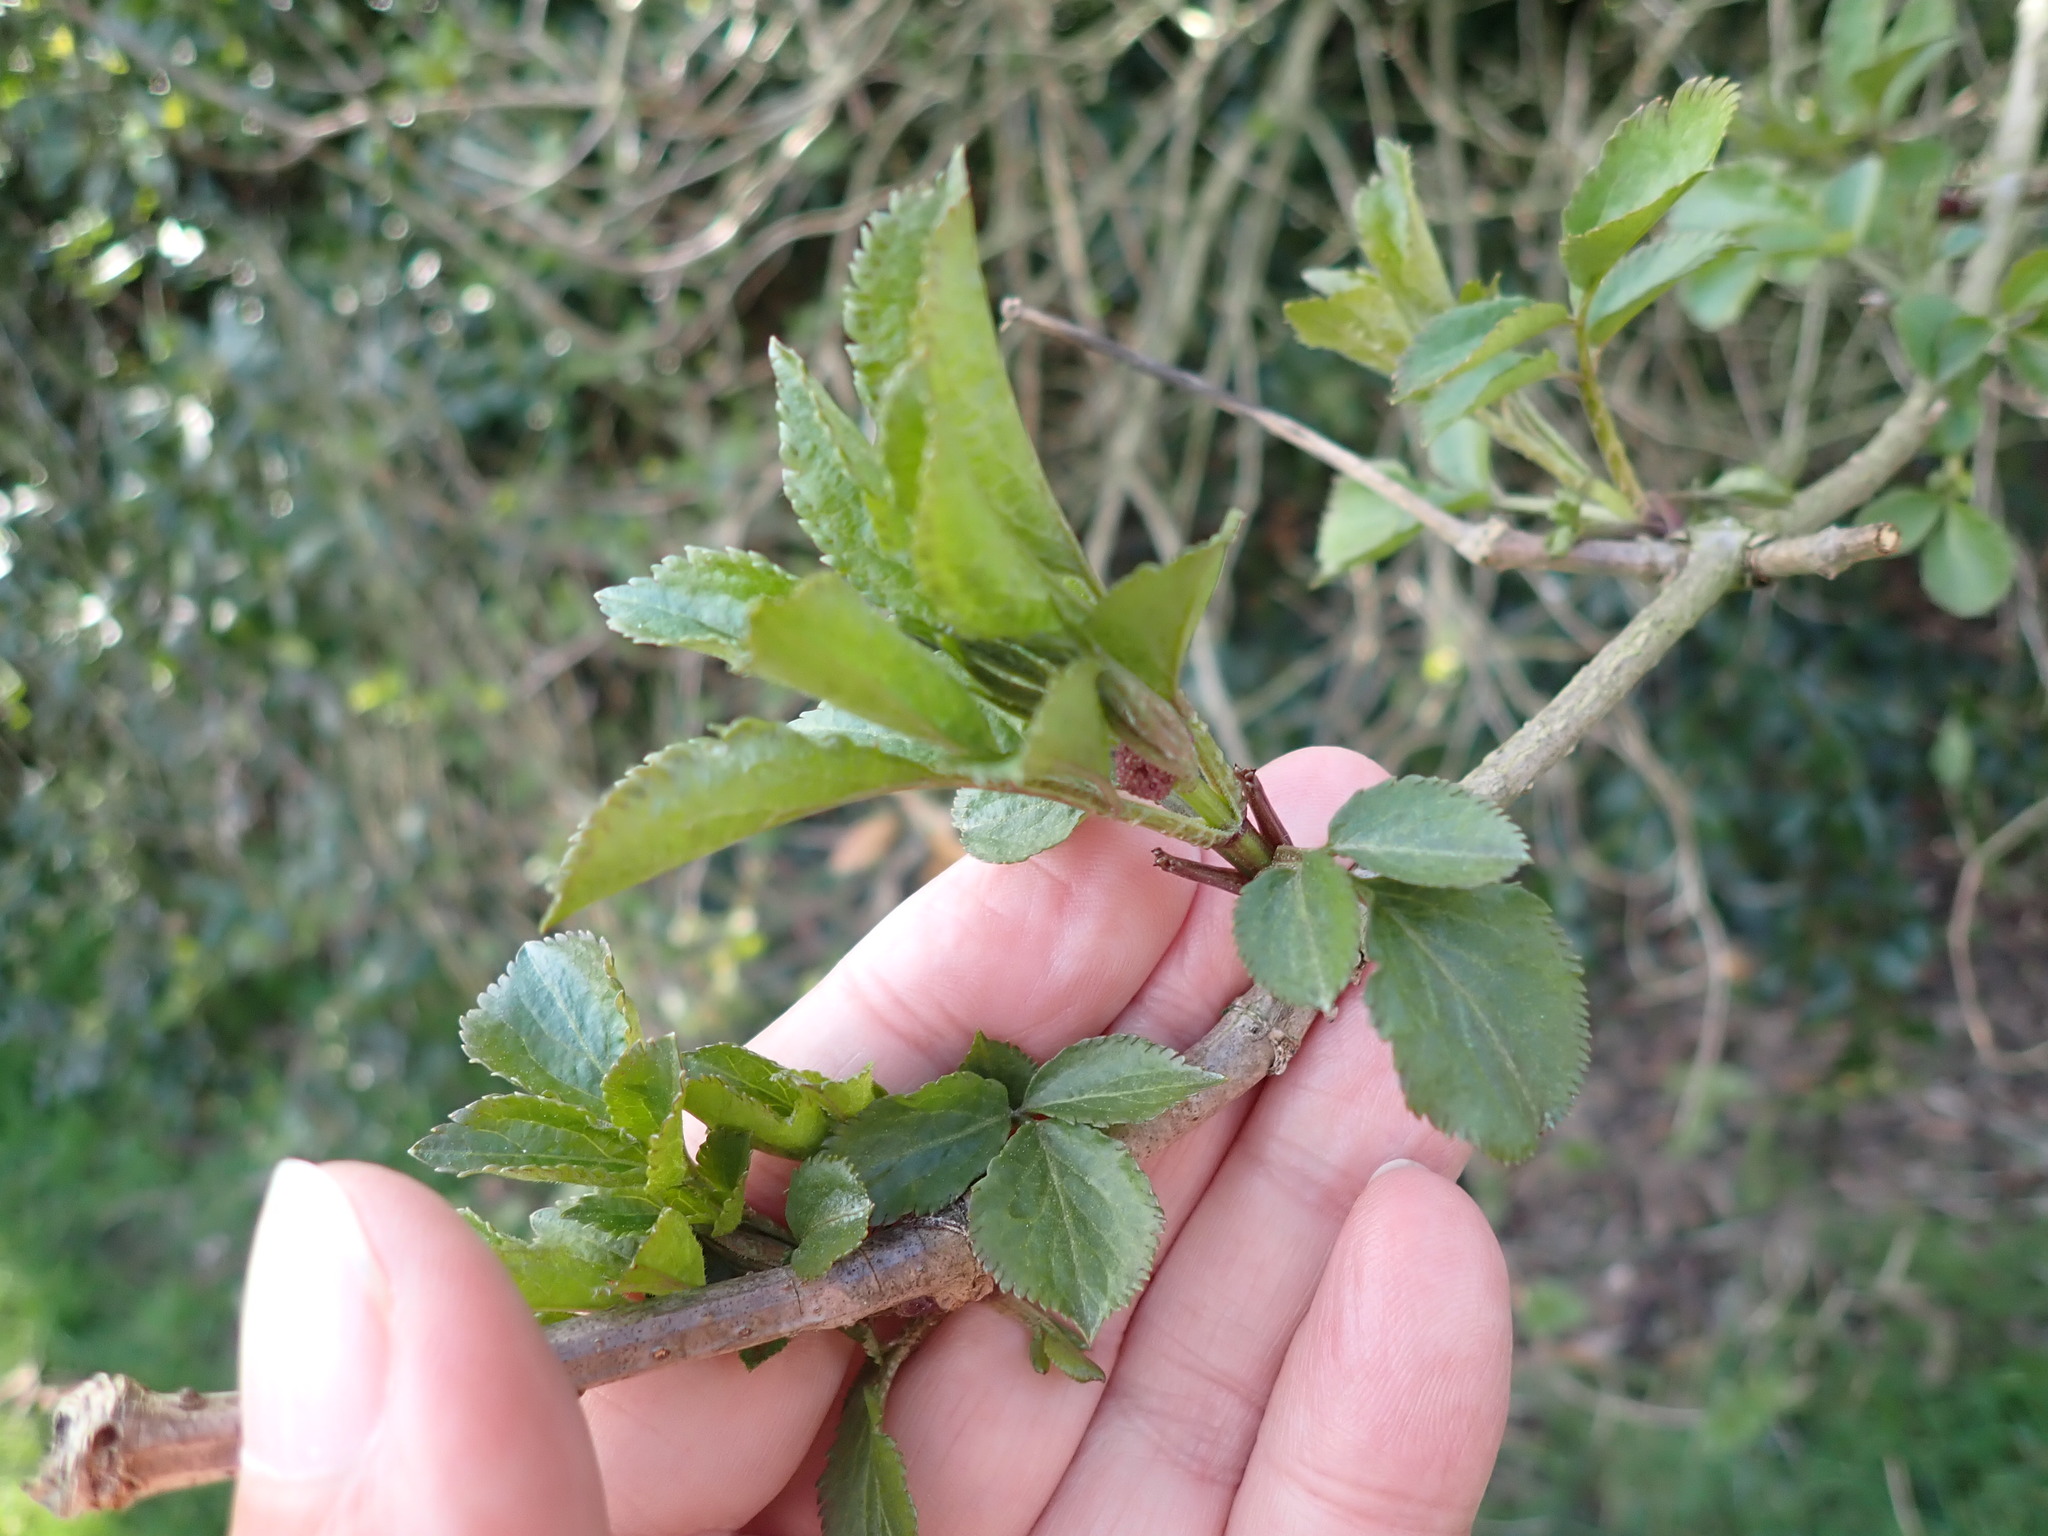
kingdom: Plantae
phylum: Tracheophyta
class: Magnoliopsida
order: Dipsacales
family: Viburnaceae
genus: Sambucus
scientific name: Sambucus nigra
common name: Elder
